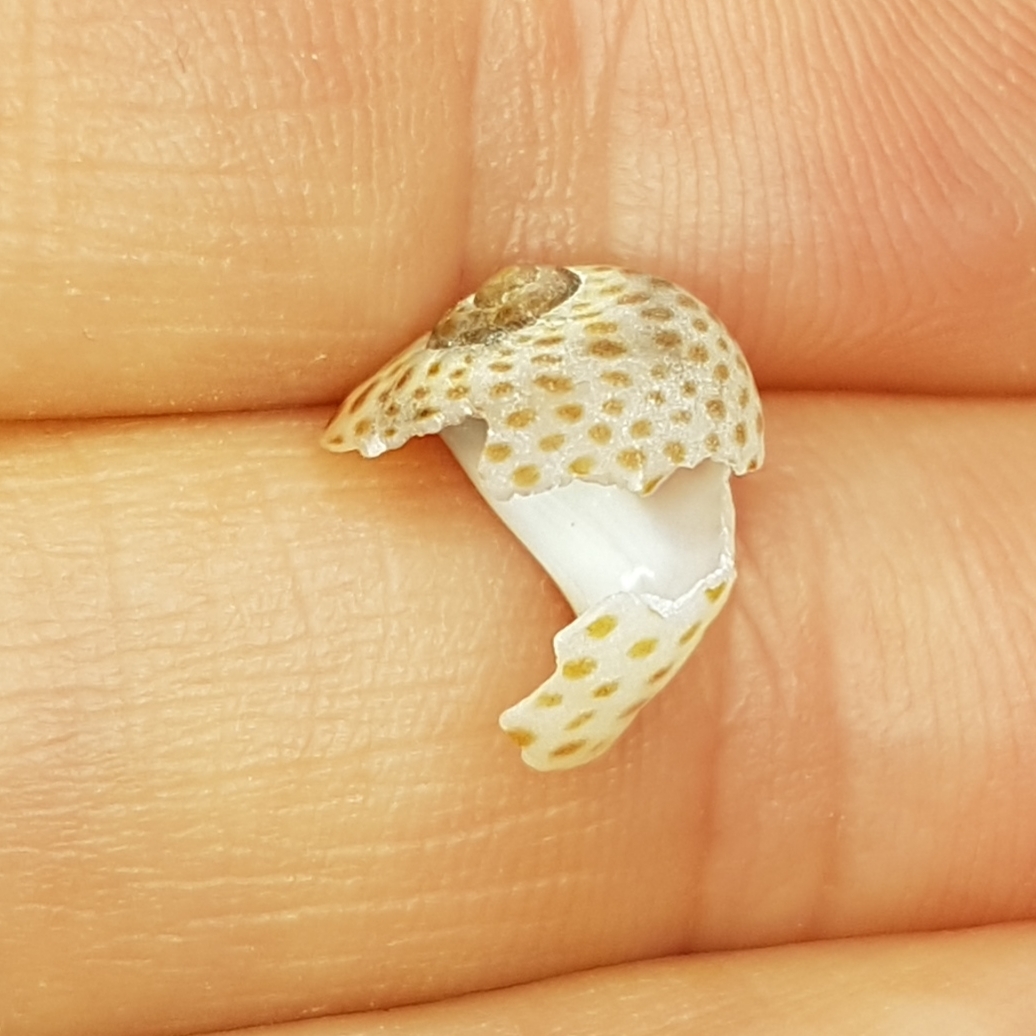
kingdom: Animalia
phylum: Mollusca
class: Gastropoda
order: Littorinimorpha
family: Naticidae
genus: Naticarius
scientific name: Naticarius stercusmuscarum
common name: Fly-speck moonsnail
